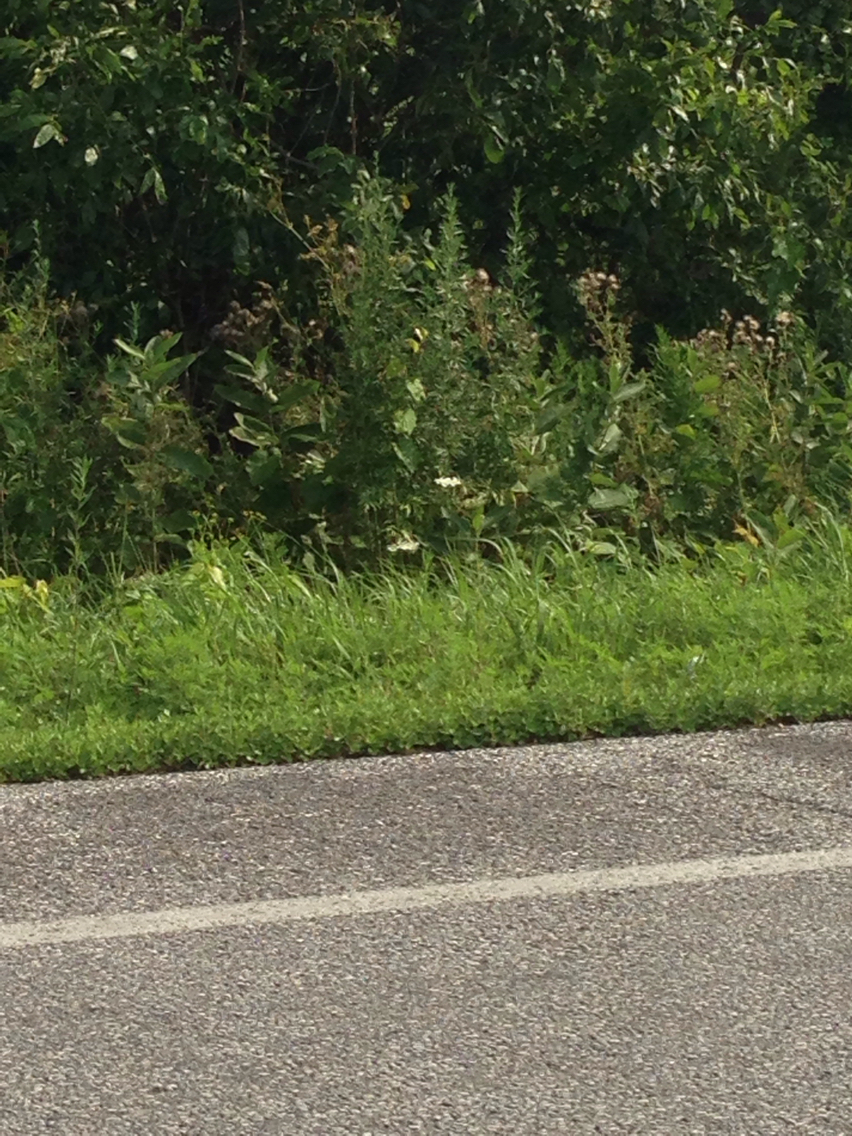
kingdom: Plantae
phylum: Tracheophyta
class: Magnoliopsida
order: Gentianales
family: Apocynaceae
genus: Asclepias
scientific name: Asclepias syriaca
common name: Common milkweed
